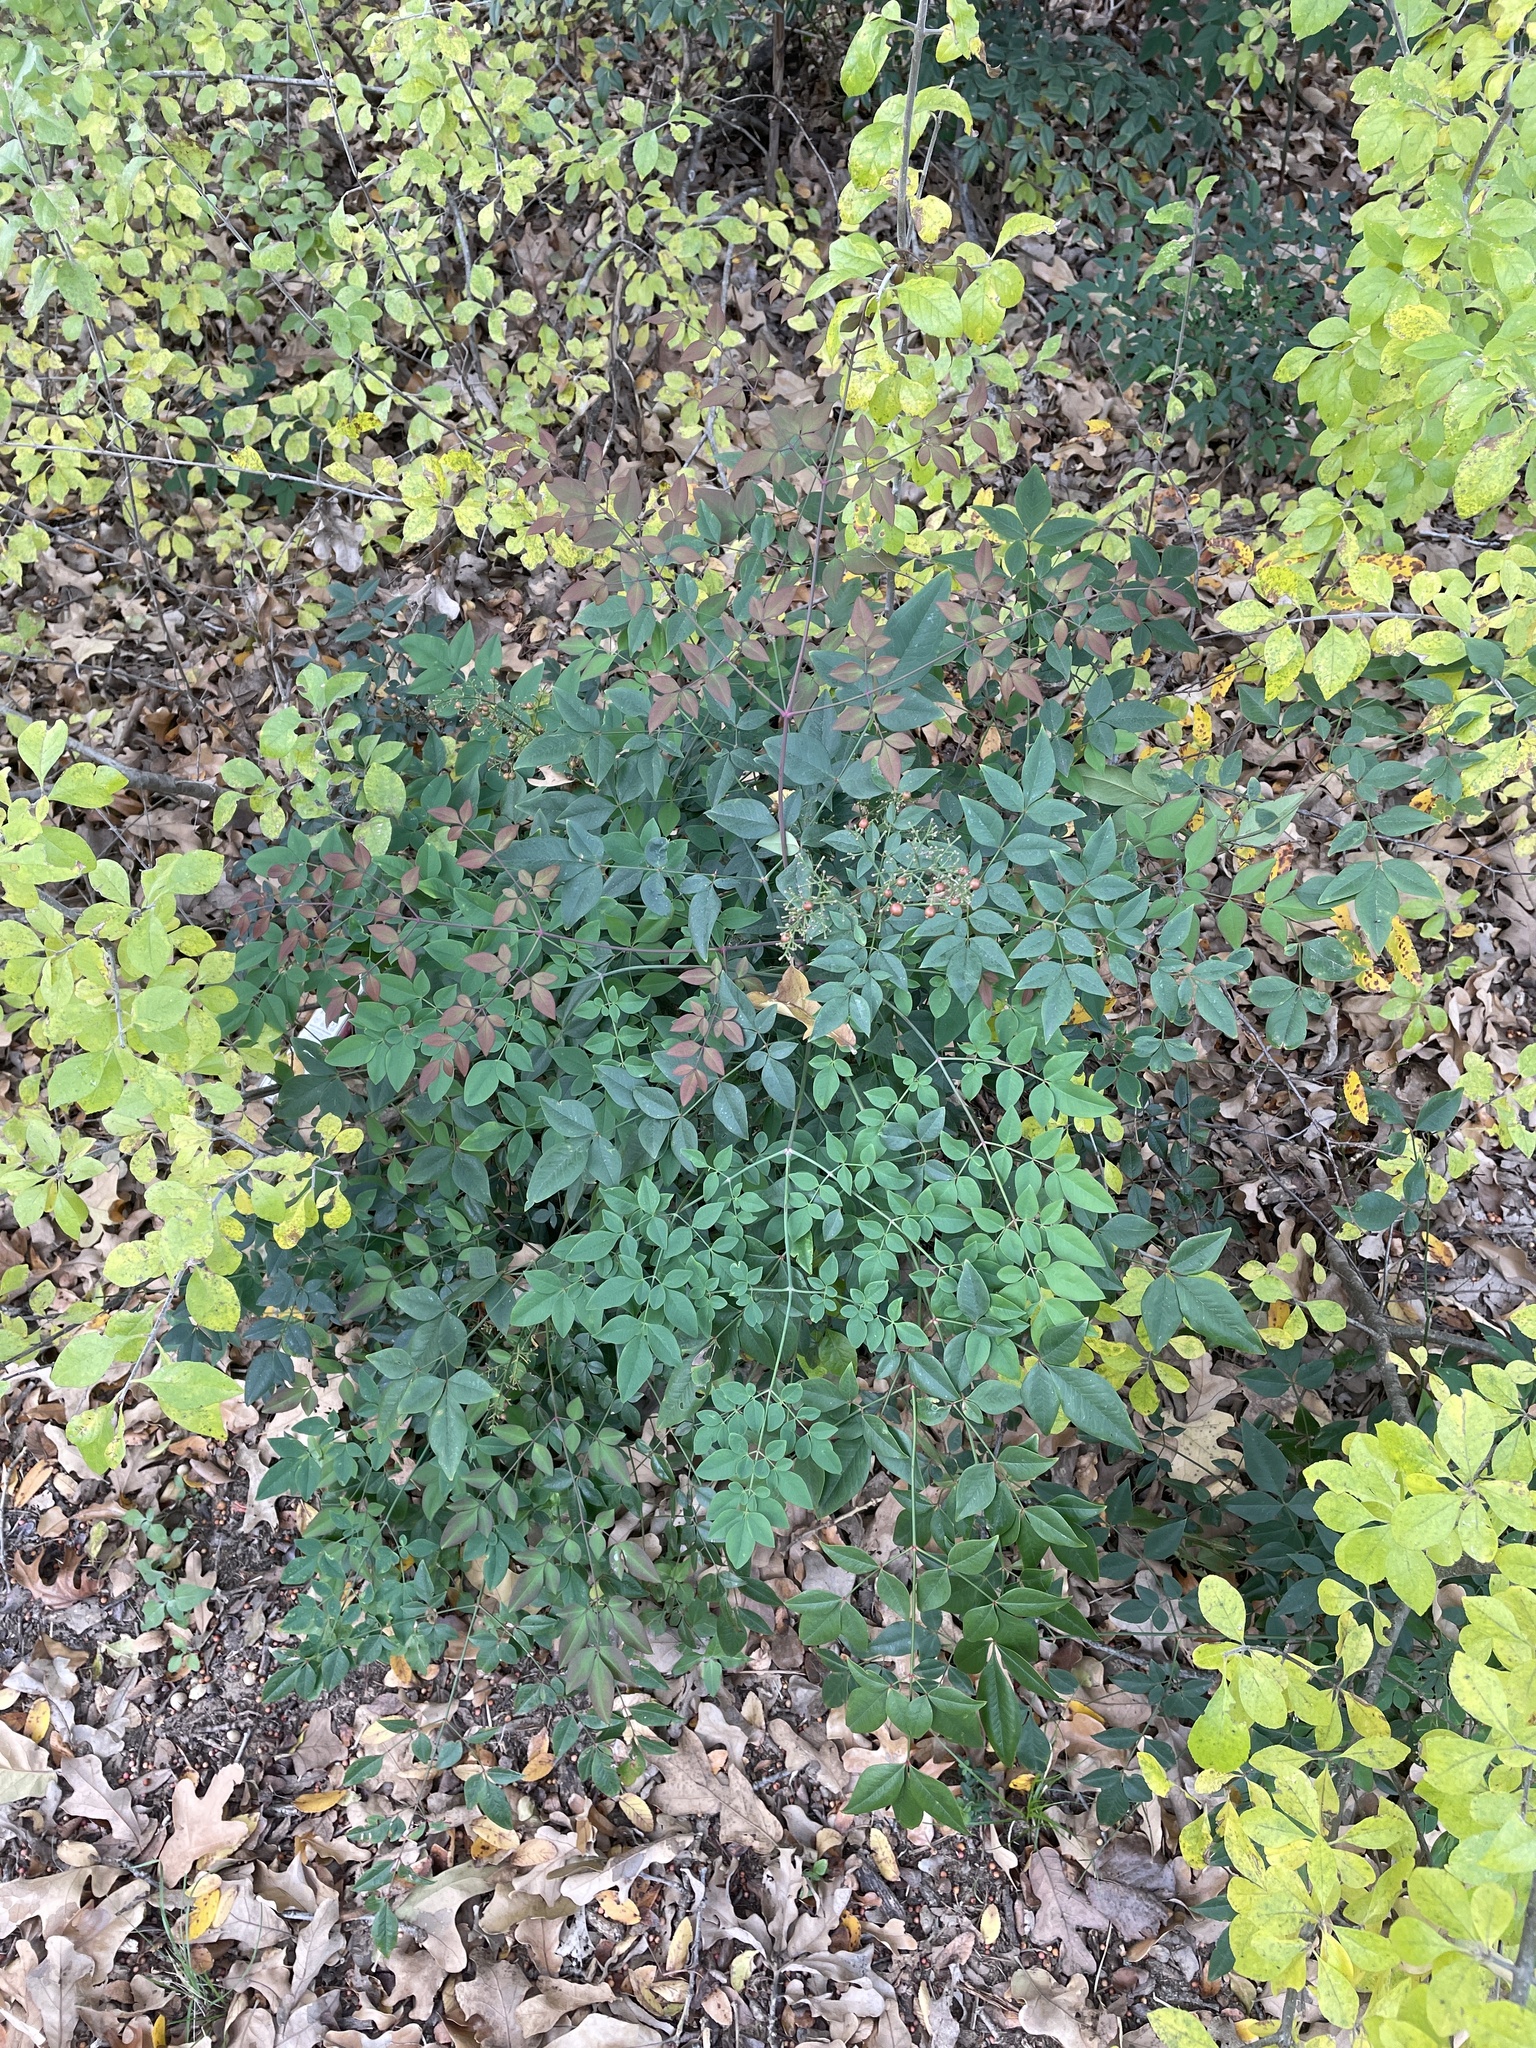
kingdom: Plantae
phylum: Tracheophyta
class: Magnoliopsida
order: Ranunculales
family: Berberidaceae
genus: Nandina
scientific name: Nandina domestica
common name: Sacred bamboo
